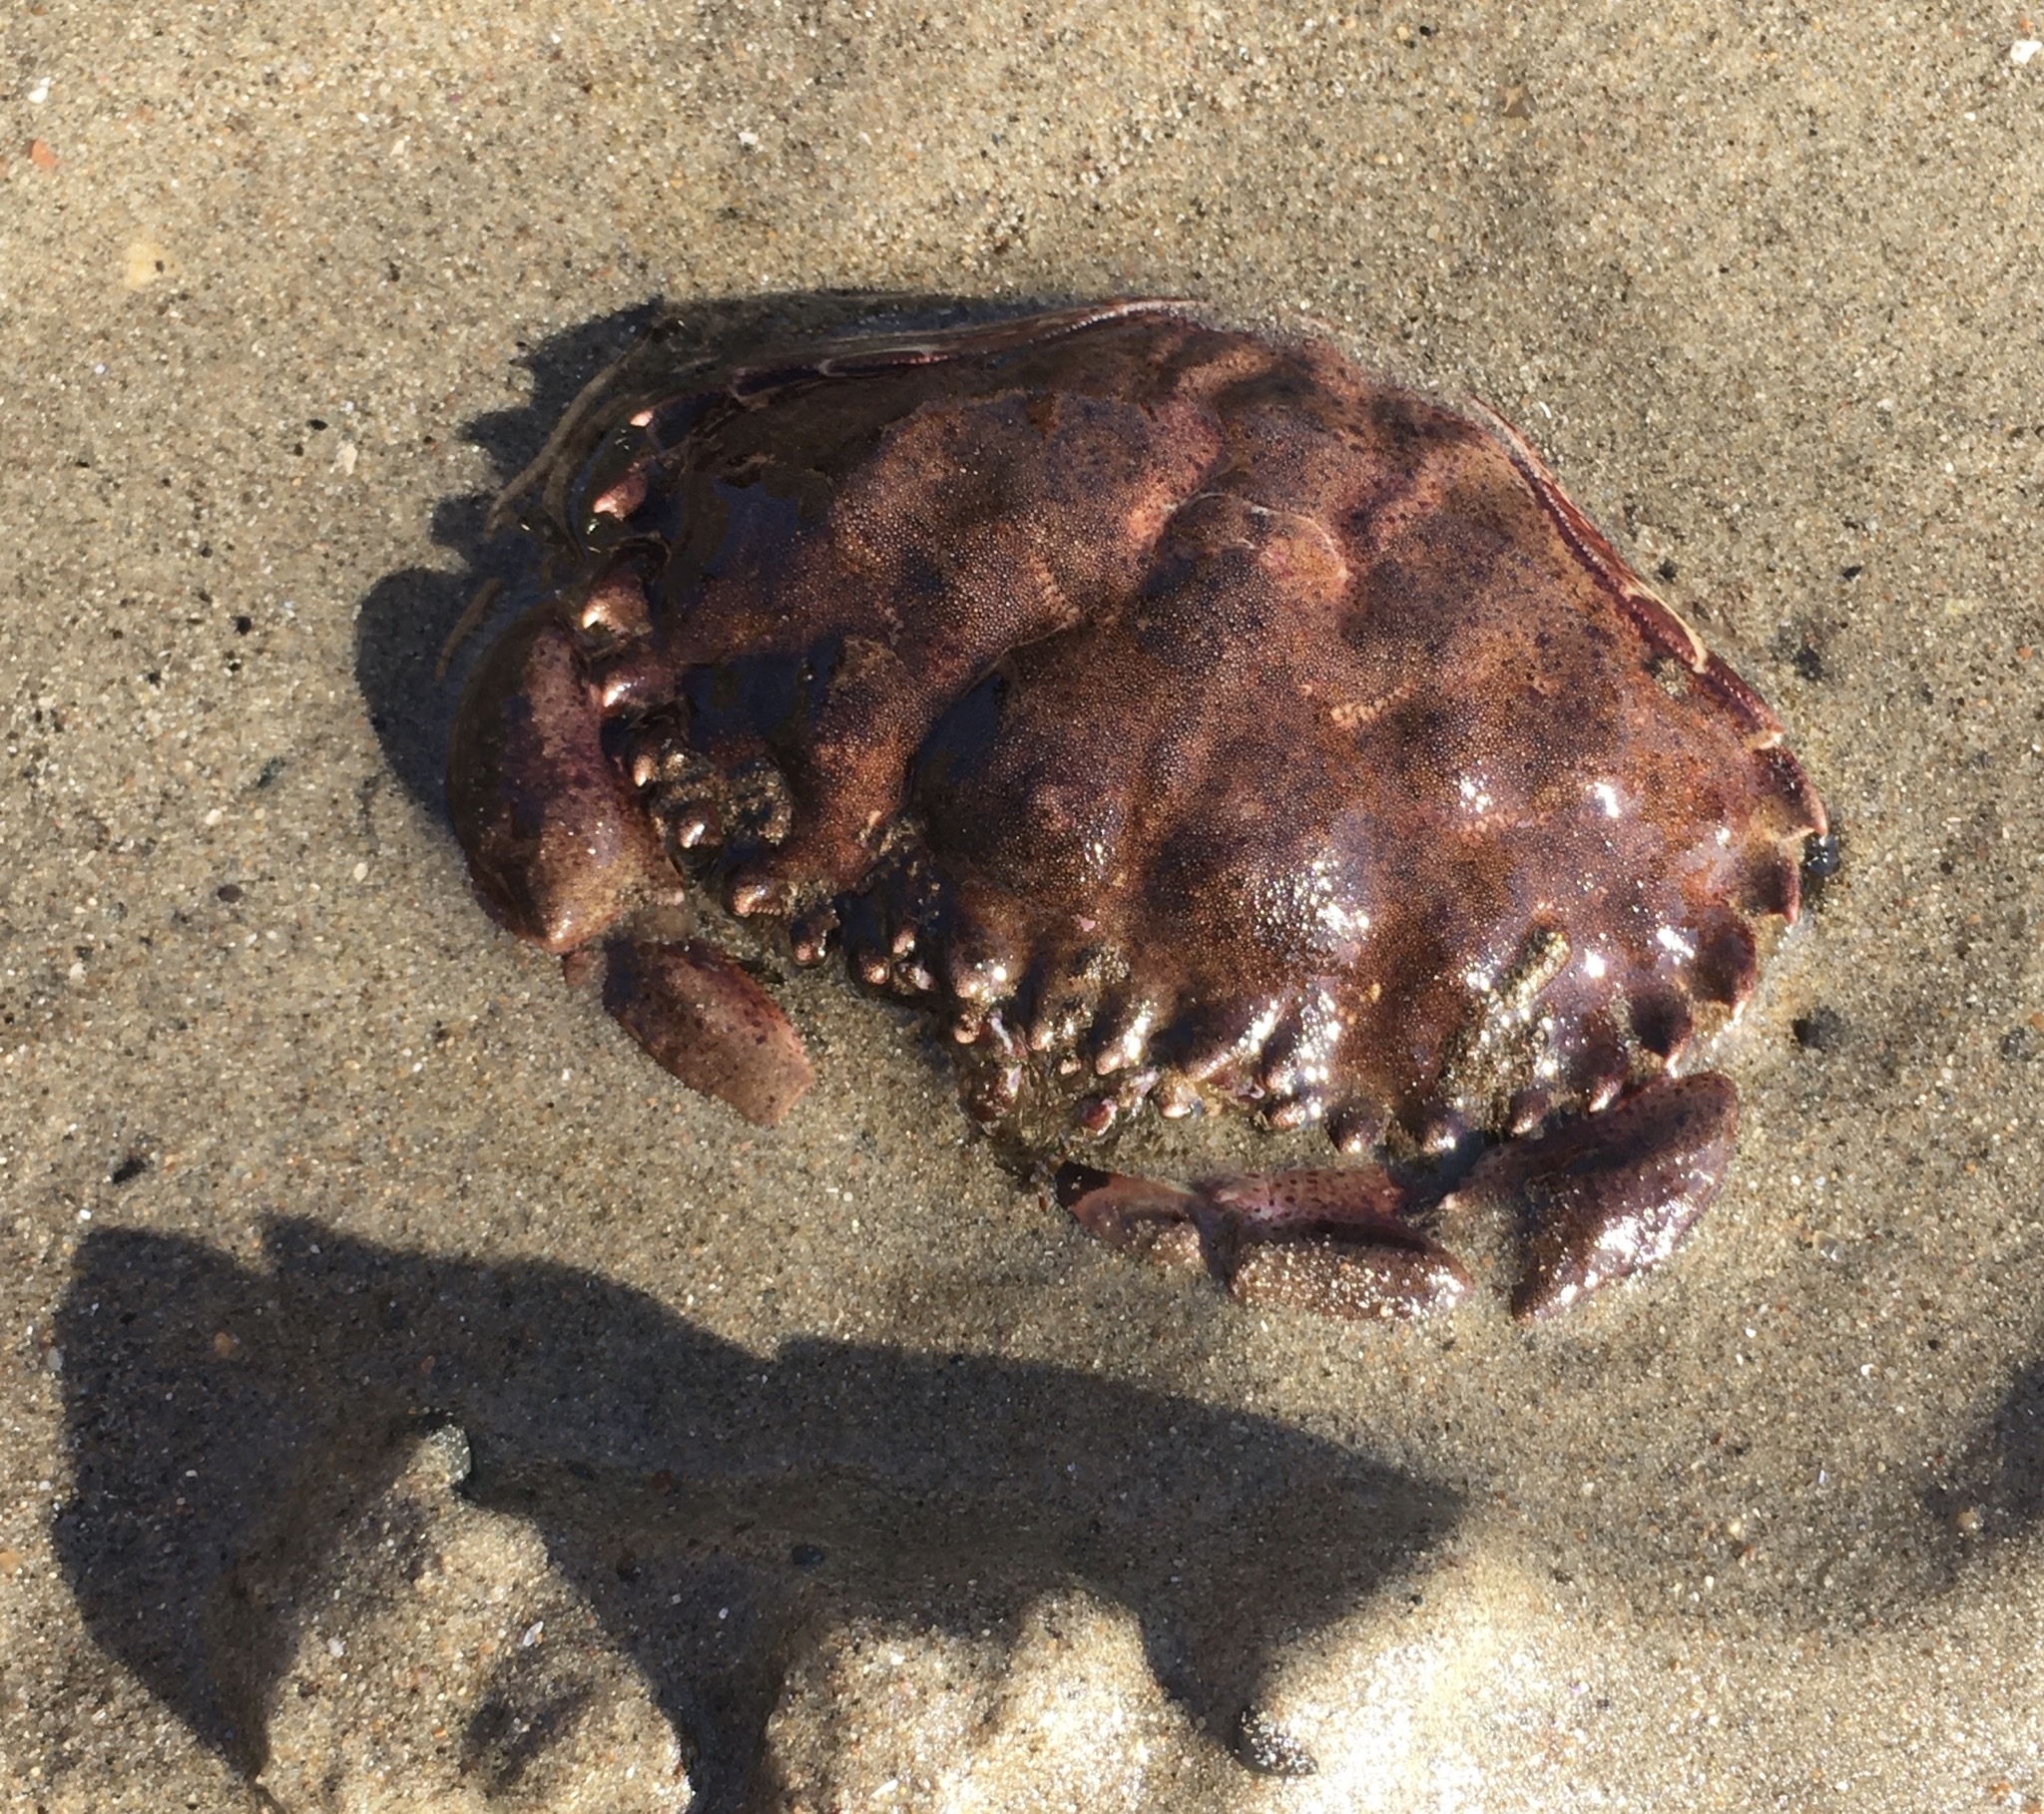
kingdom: Animalia
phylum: Arthropoda
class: Malacostraca
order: Decapoda
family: Cancridae
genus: Romaleon
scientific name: Romaleon antennarium
